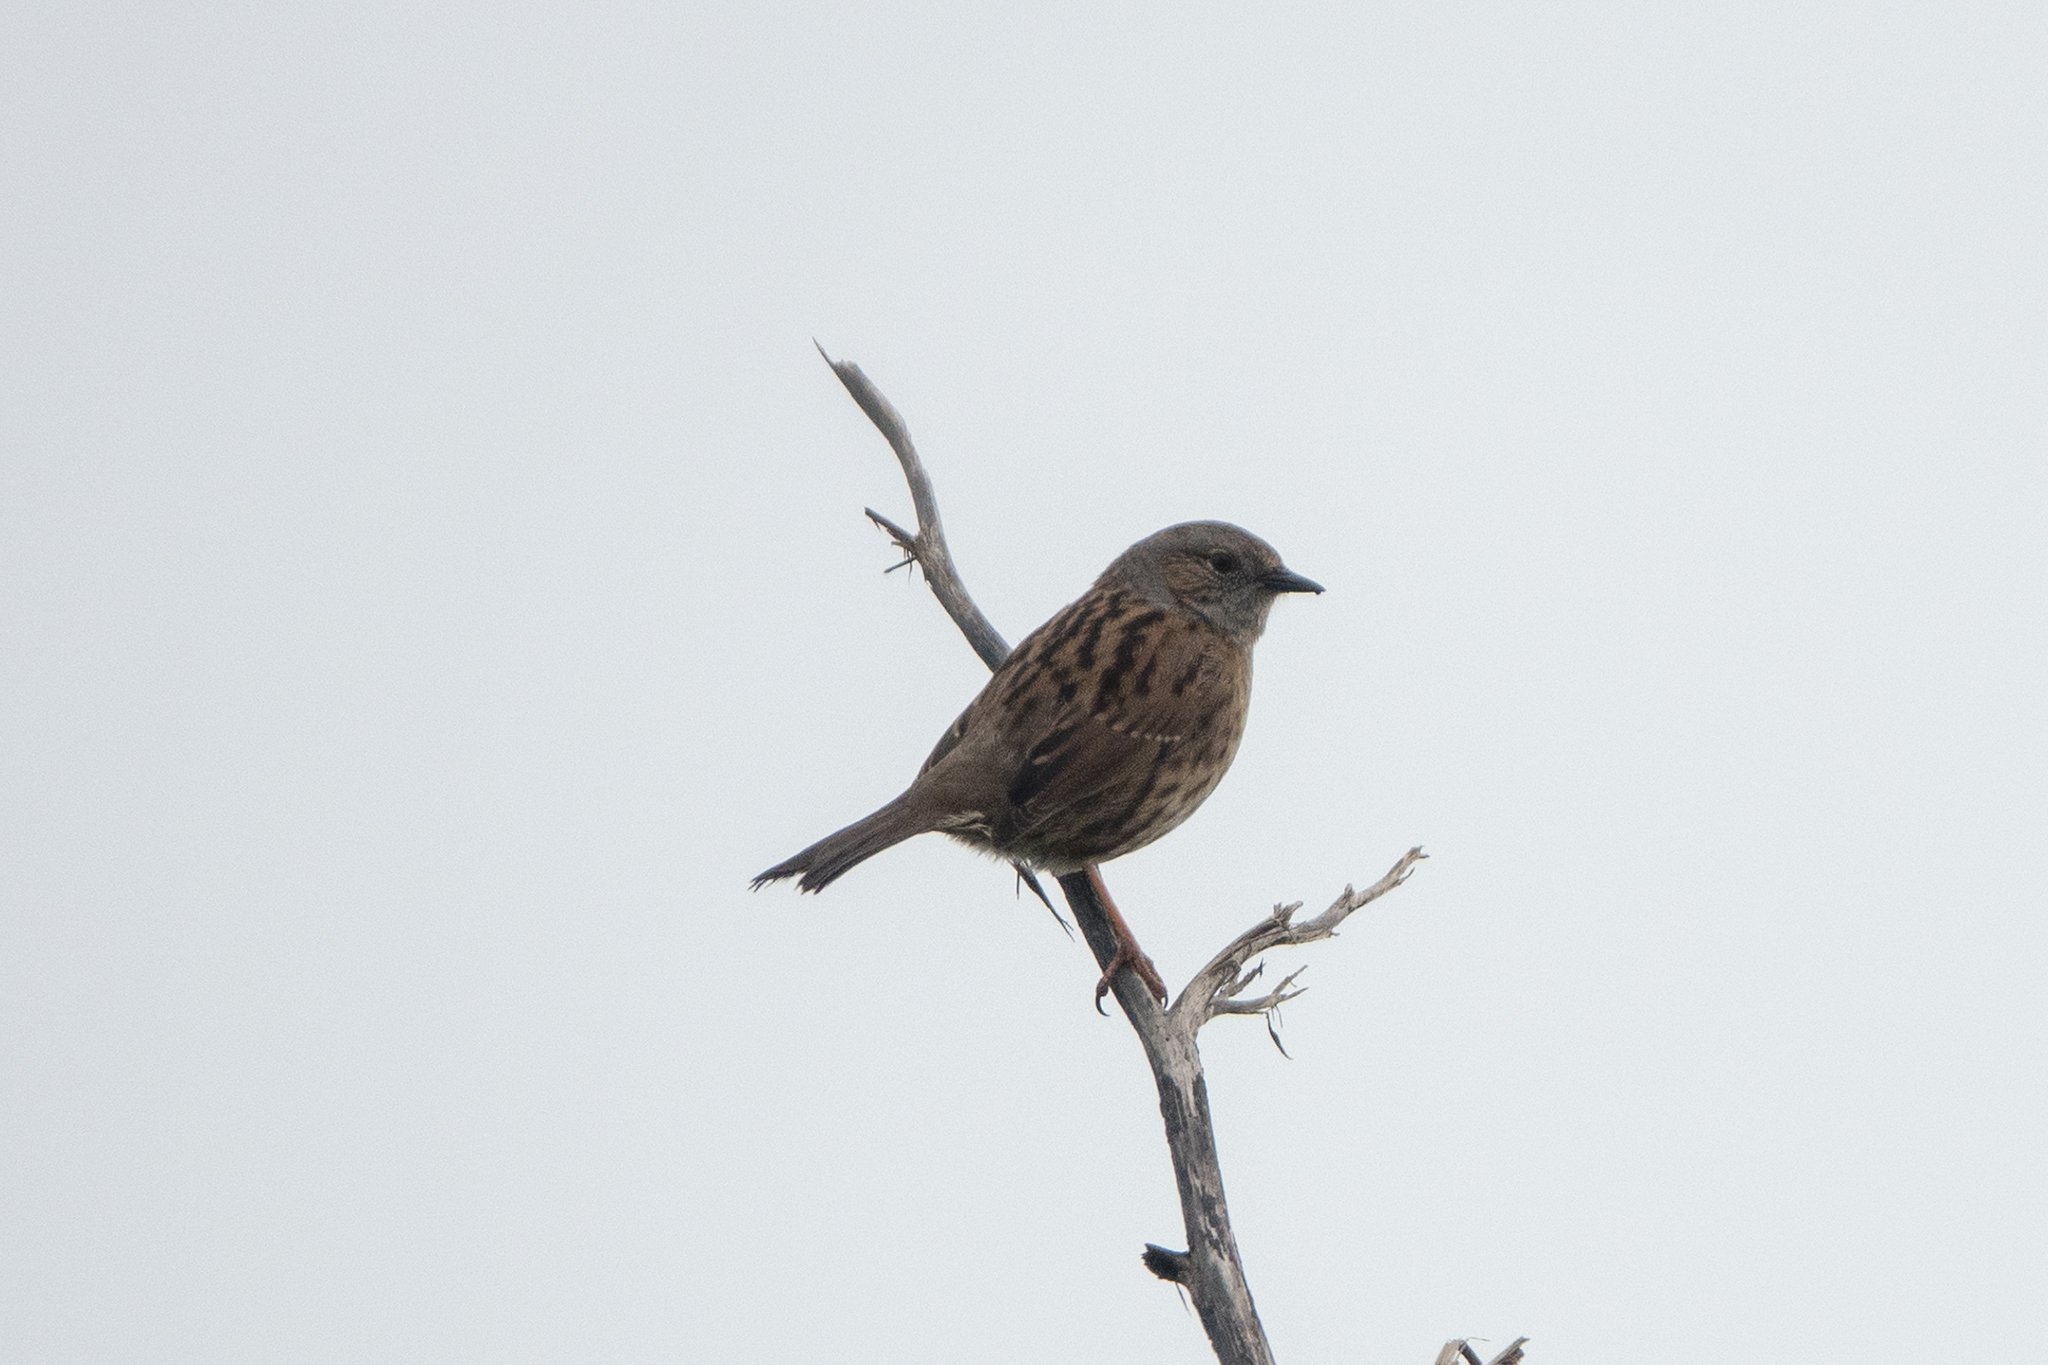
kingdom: Animalia
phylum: Chordata
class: Aves
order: Passeriformes
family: Prunellidae
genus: Prunella
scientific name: Prunella modularis
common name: Dunnock
